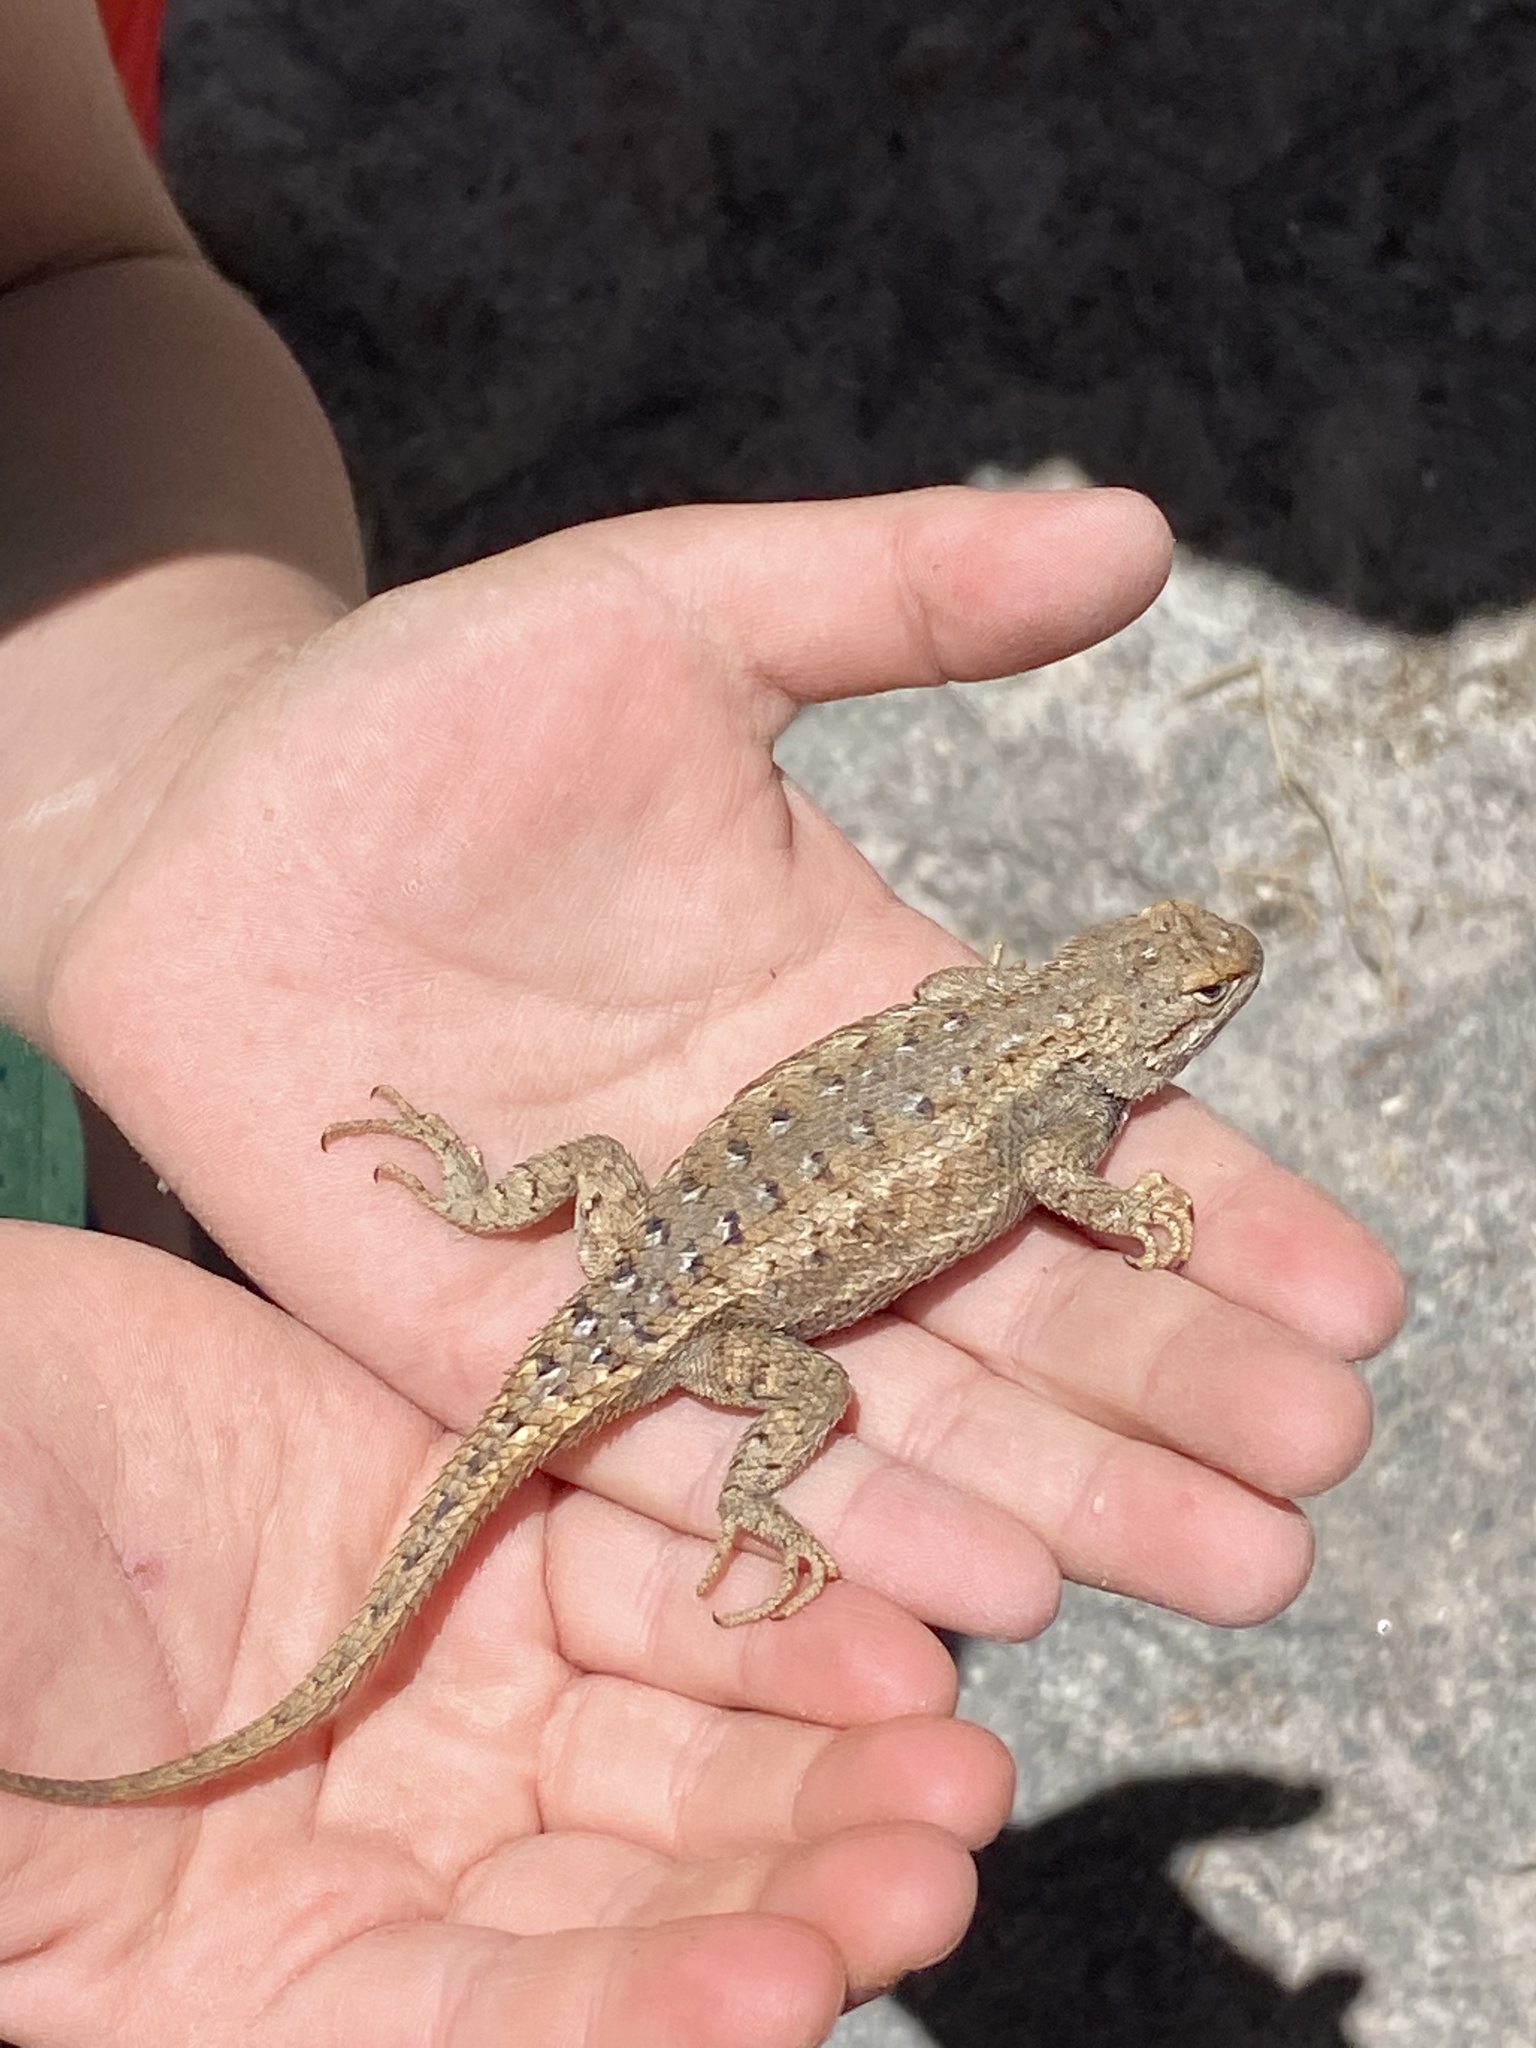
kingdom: Animalia
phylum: Chordata
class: Squamata
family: Phrynosomatidae
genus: Sceloporus
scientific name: Sceloporus cowlesi
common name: White sands prairie lizard
